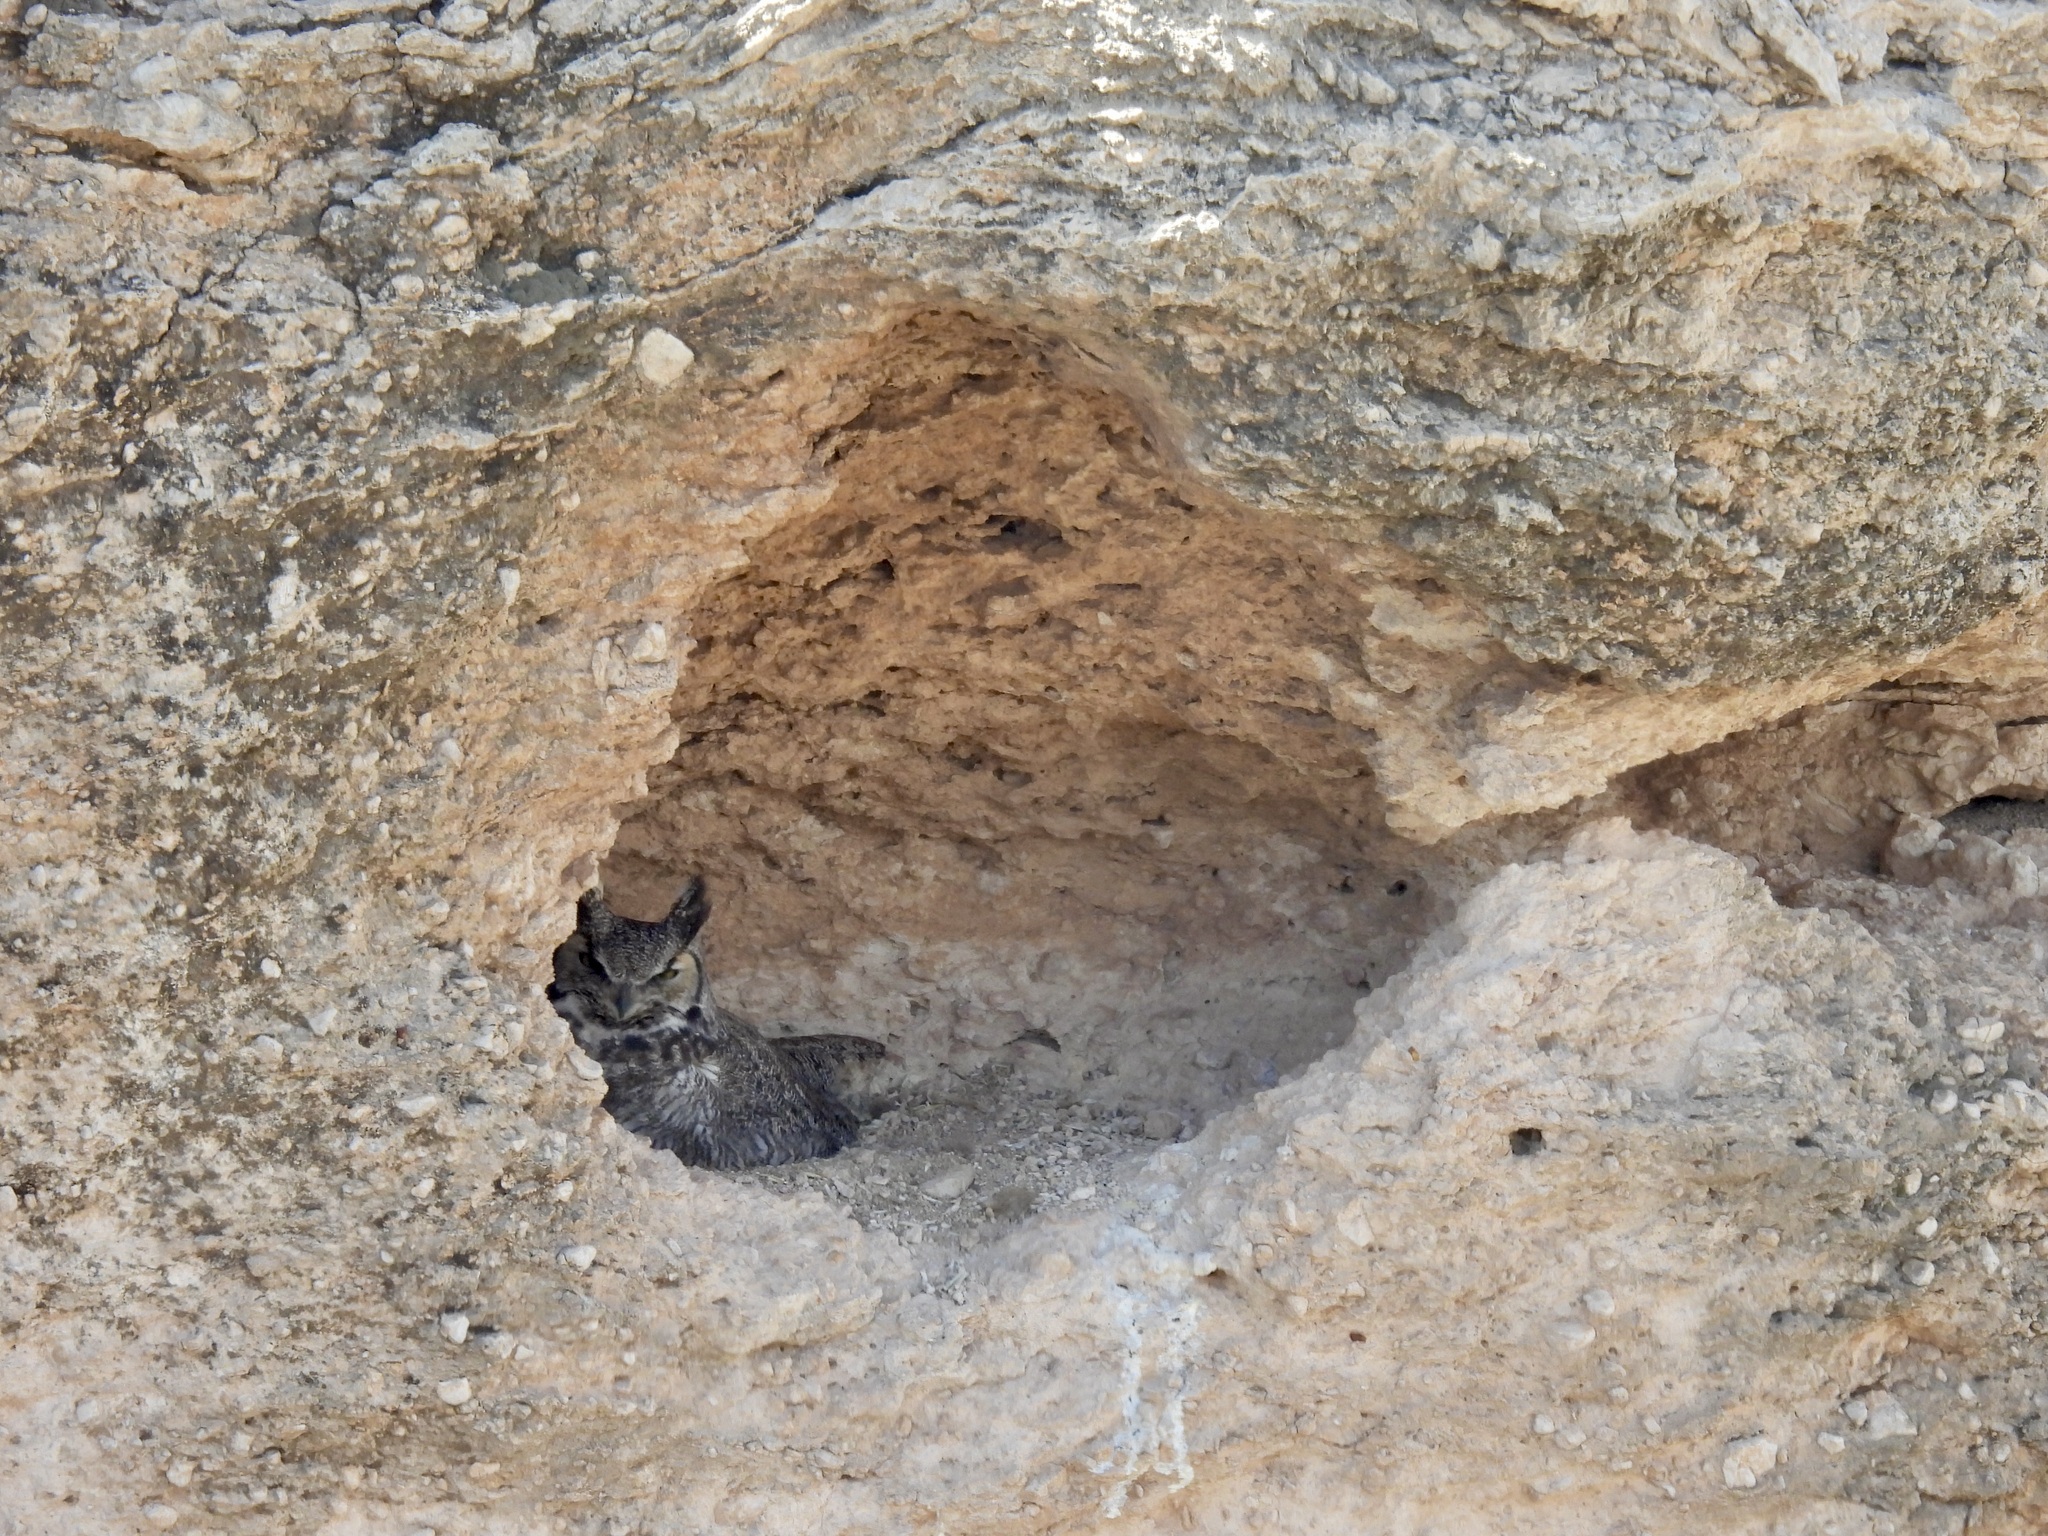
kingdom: Animalia
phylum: Chordata
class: Aves
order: Strigiformes
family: Strigidae
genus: Bubo
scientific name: Bubo virginianus
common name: Great horned owl
